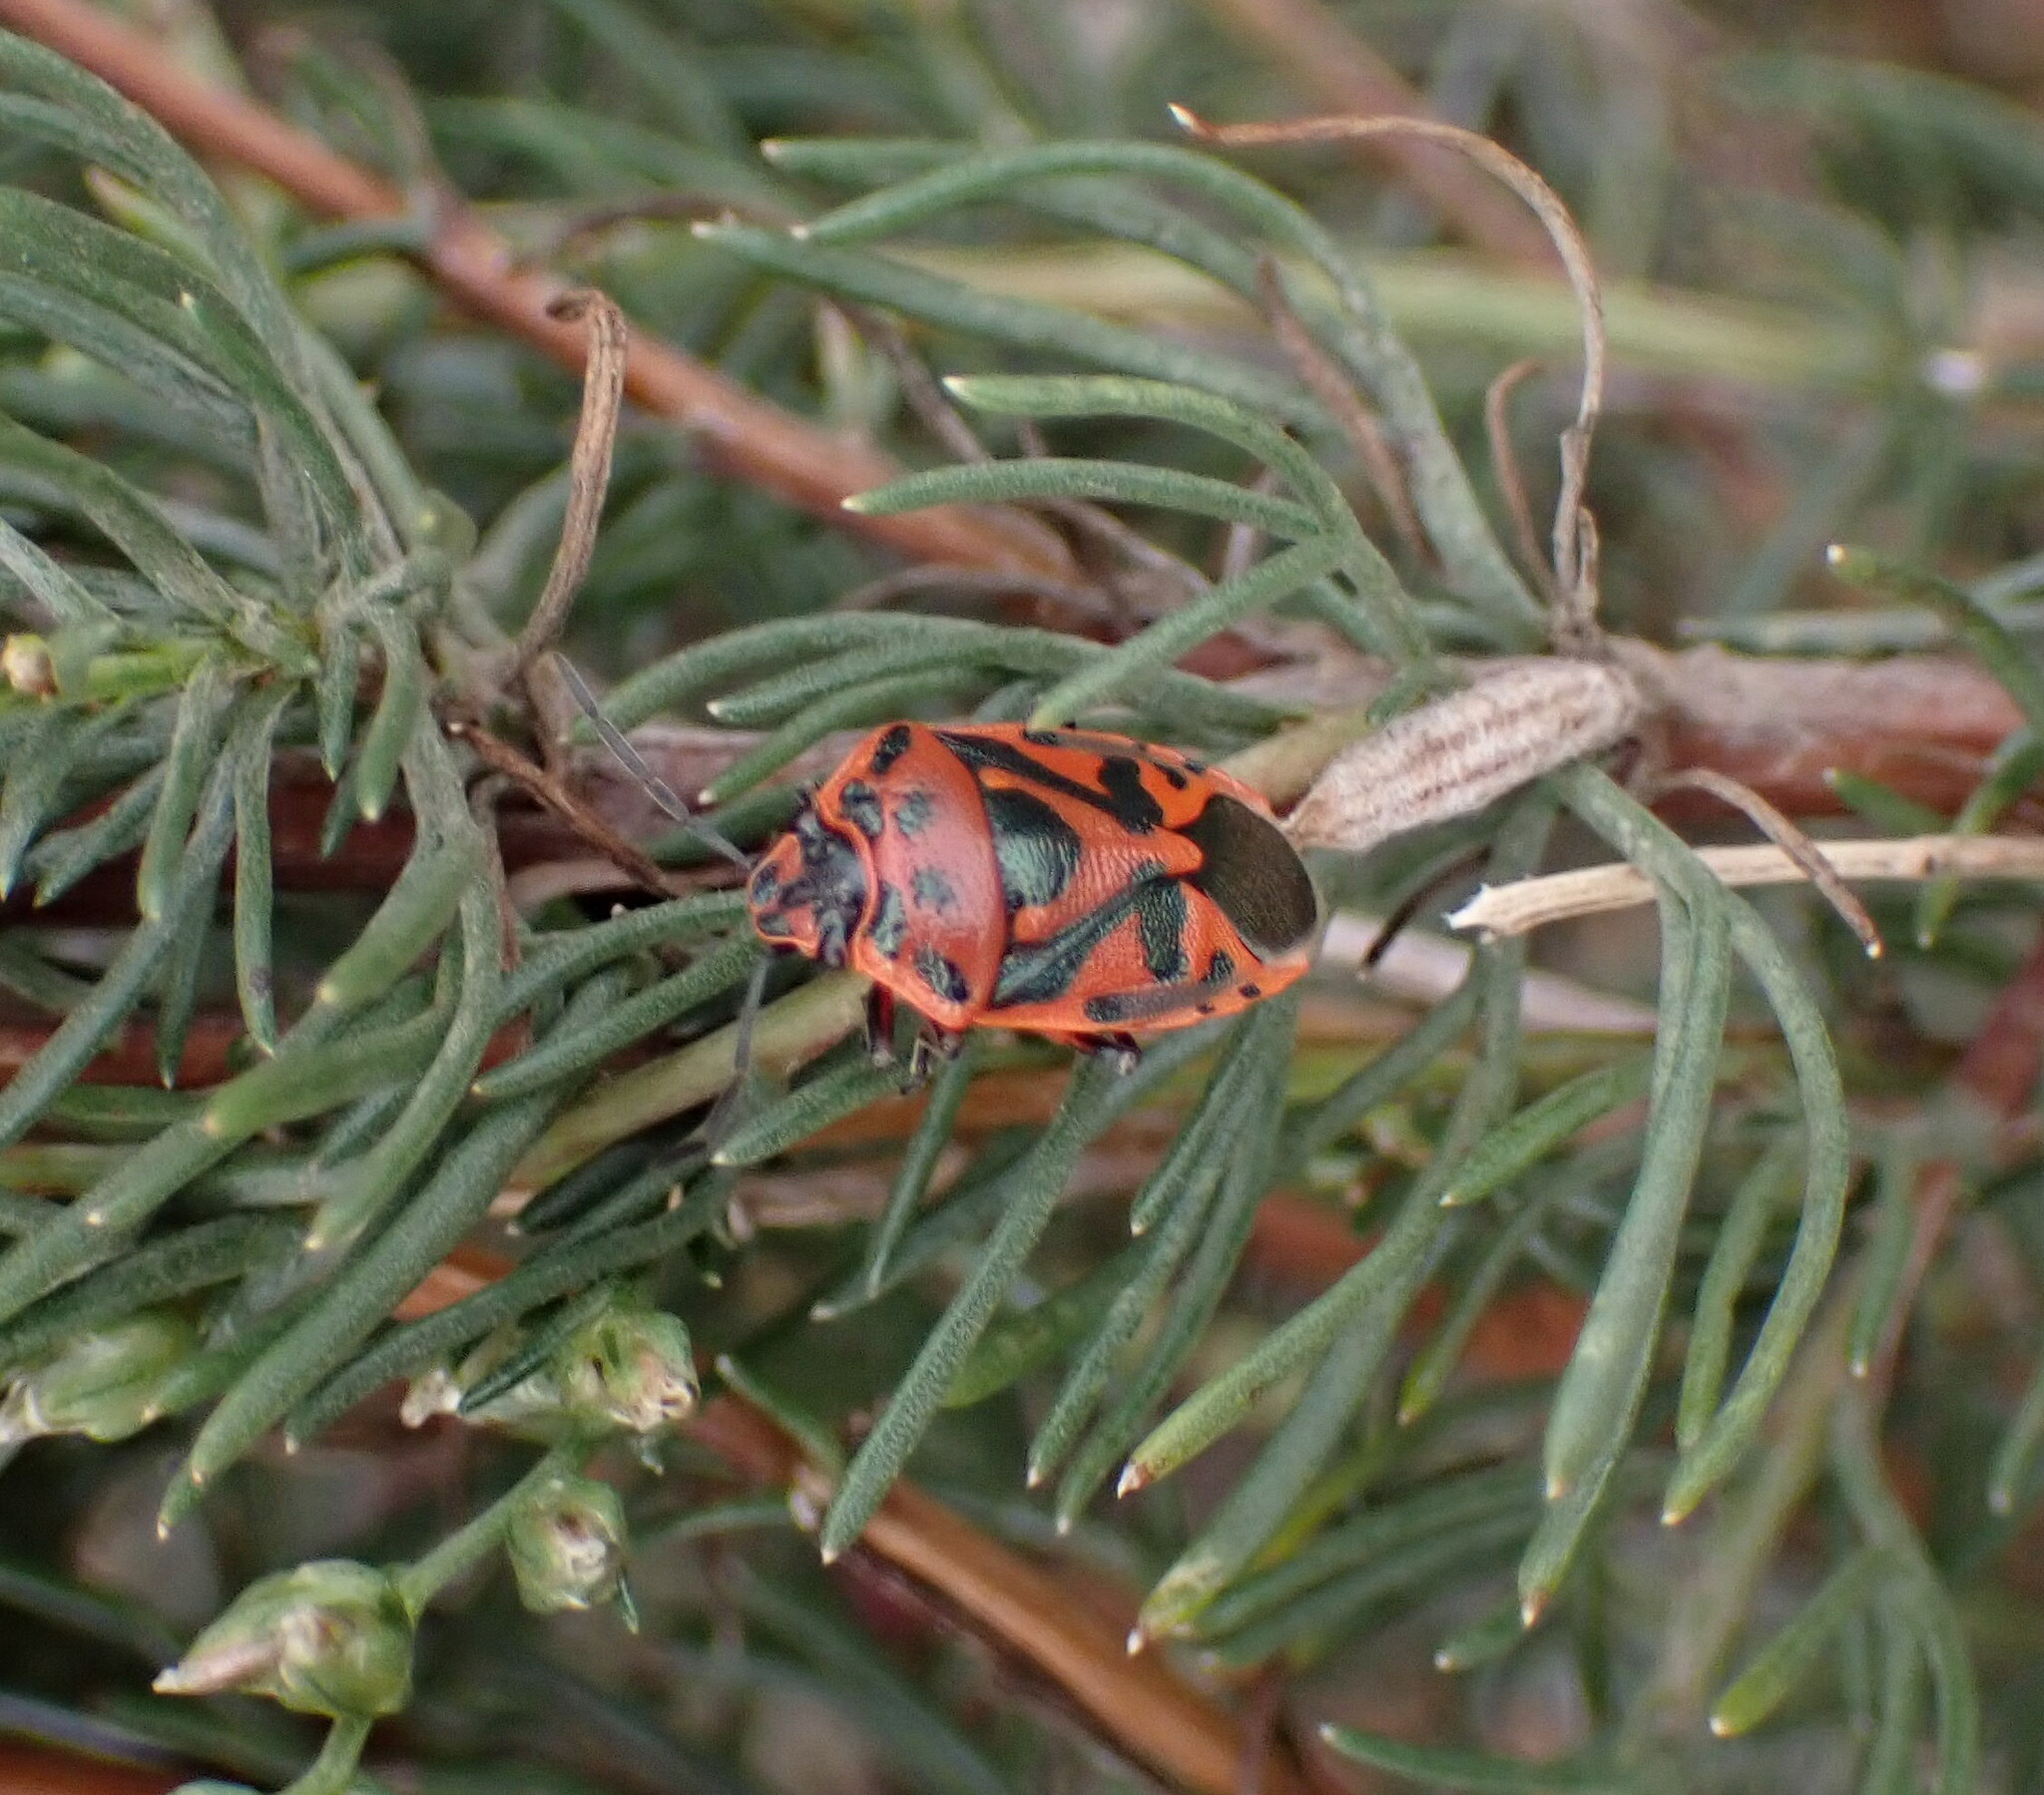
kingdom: Animalia
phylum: Arthropoda
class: Insecta
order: Hemiptera
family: Pentatomidae
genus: Eurydema
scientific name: Eurydema ornata
